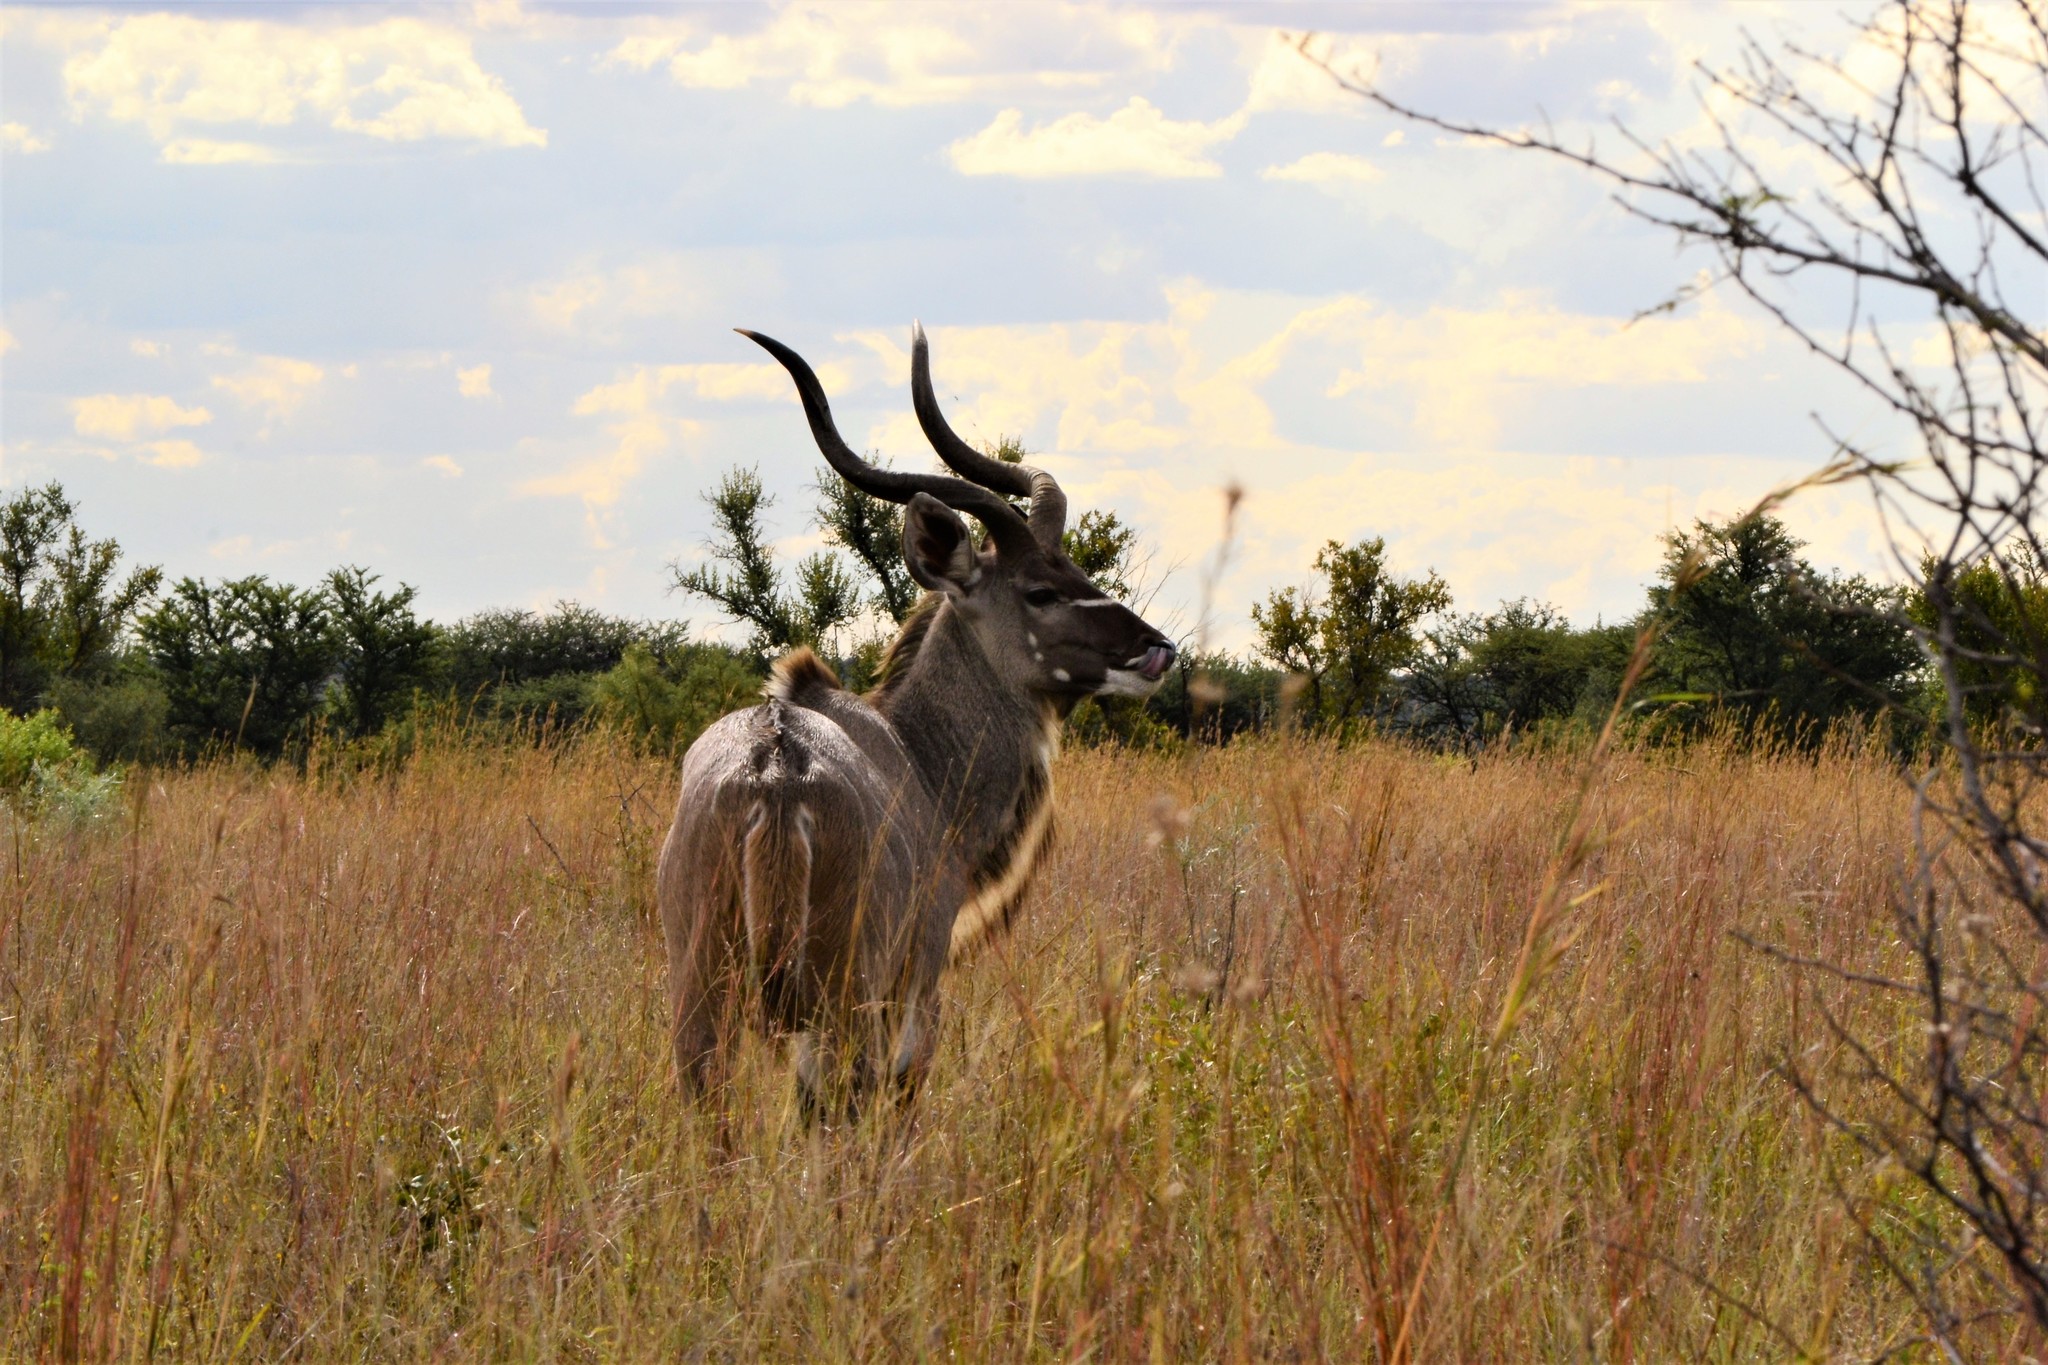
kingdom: Animalia
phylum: Chordata
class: Mammalia
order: Artiodactyla
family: Bovidae
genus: Tragelaphus
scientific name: Tragelaphus strepsiceros
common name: Greater kudu
